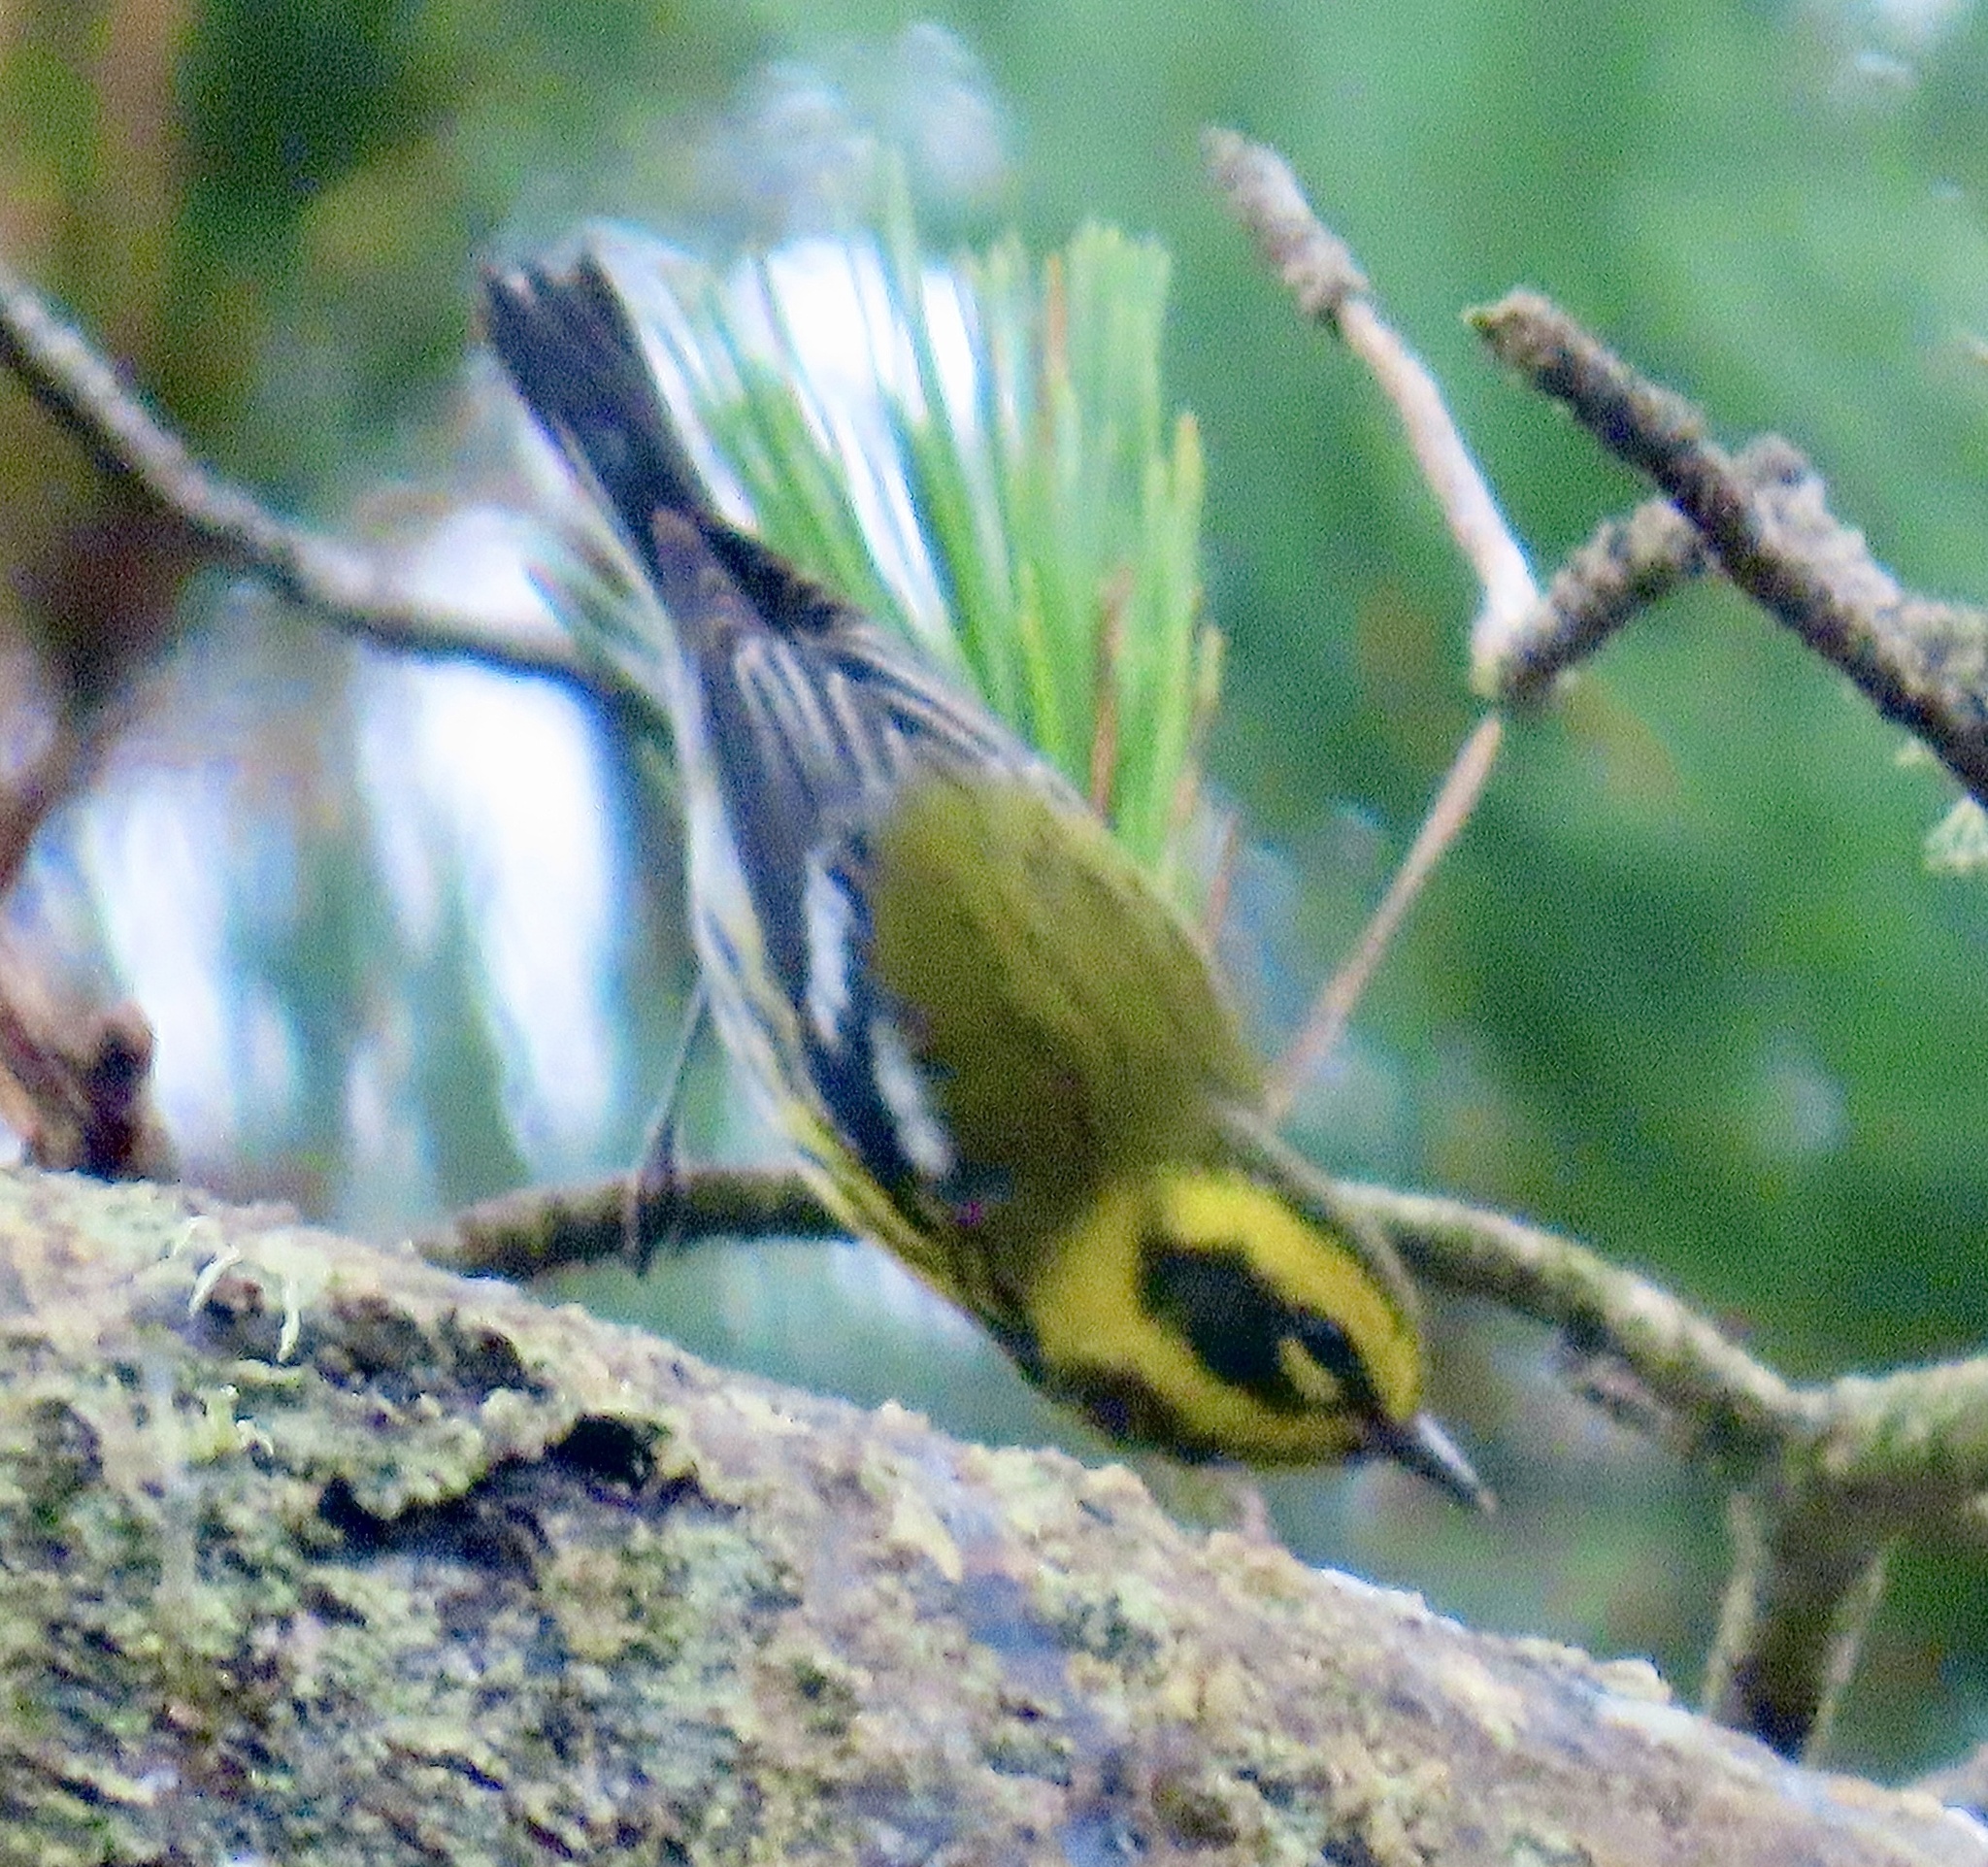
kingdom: Animalia
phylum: Chordata
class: Aves
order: Passeriformes
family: Parulidae
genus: Setophaga
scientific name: Setophaga townsendi
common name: Townsend's warbler
